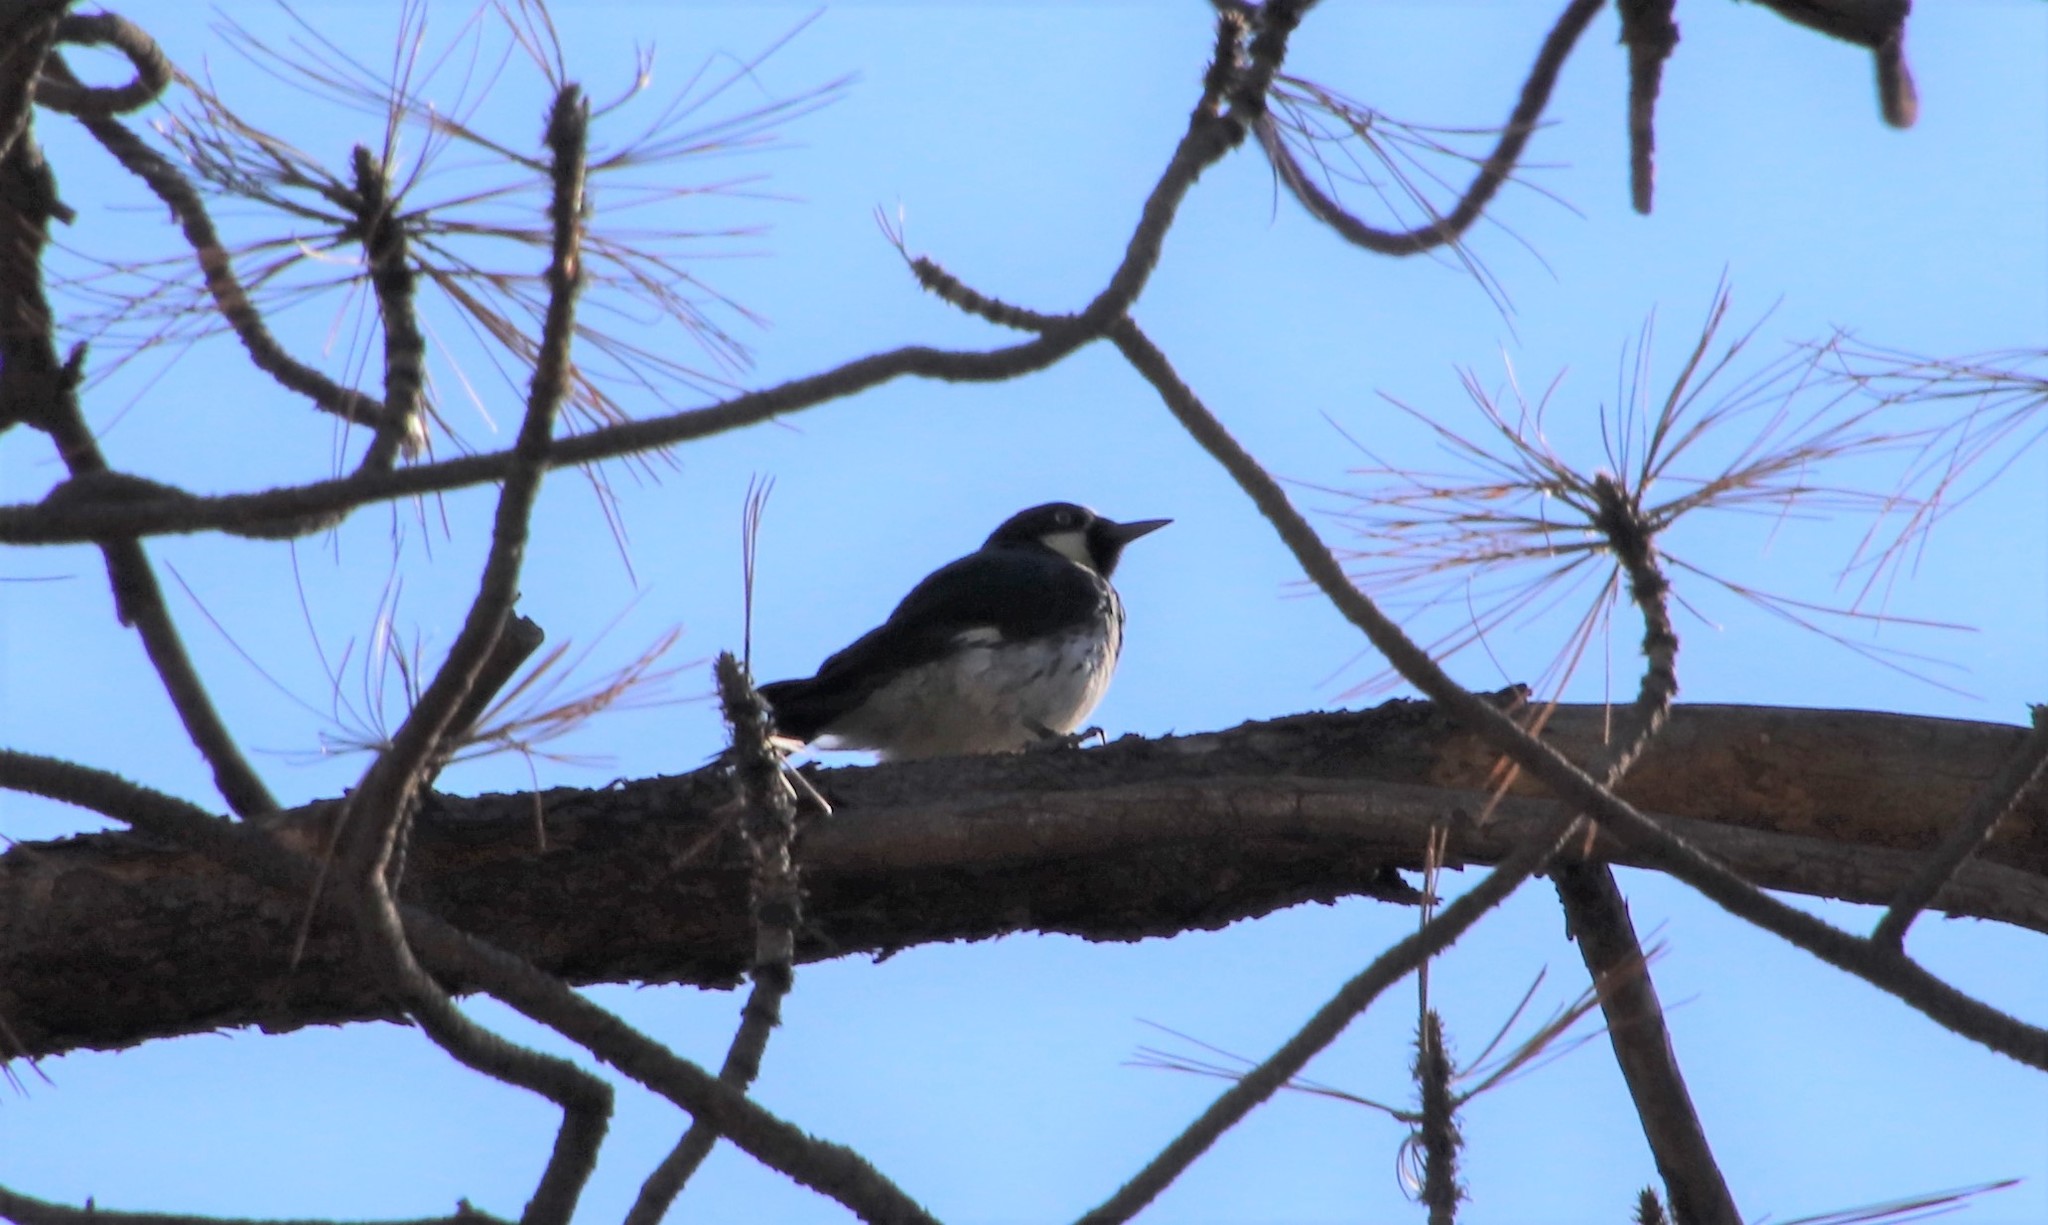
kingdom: Animalia
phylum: Chordata
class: Aves
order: Piciformes
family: Picidae
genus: Melanerpes
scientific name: Melanerpes formicivorus
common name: Acorn woodpecker
